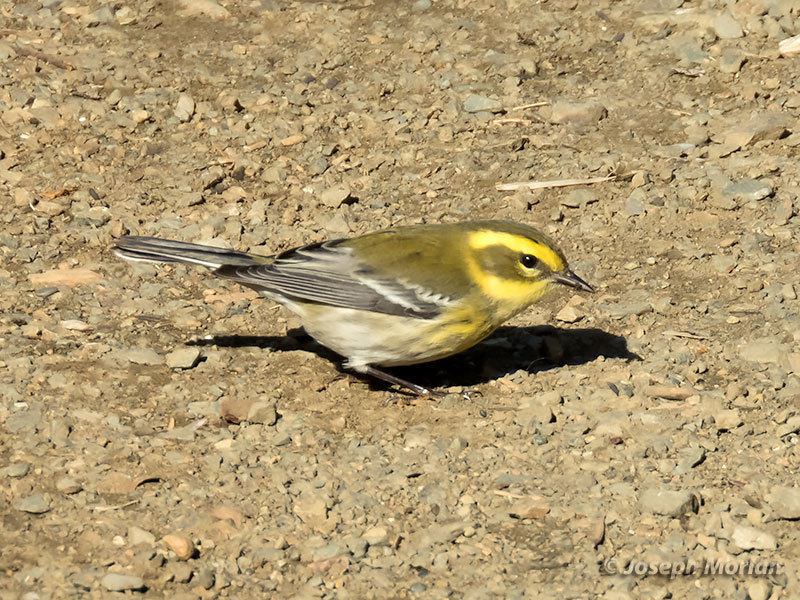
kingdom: Animalia
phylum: Chordata
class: Aves
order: Passeriformes
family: Parulidae
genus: Setophaga
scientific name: Setophaga townsendi
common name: Townsend's warbler
